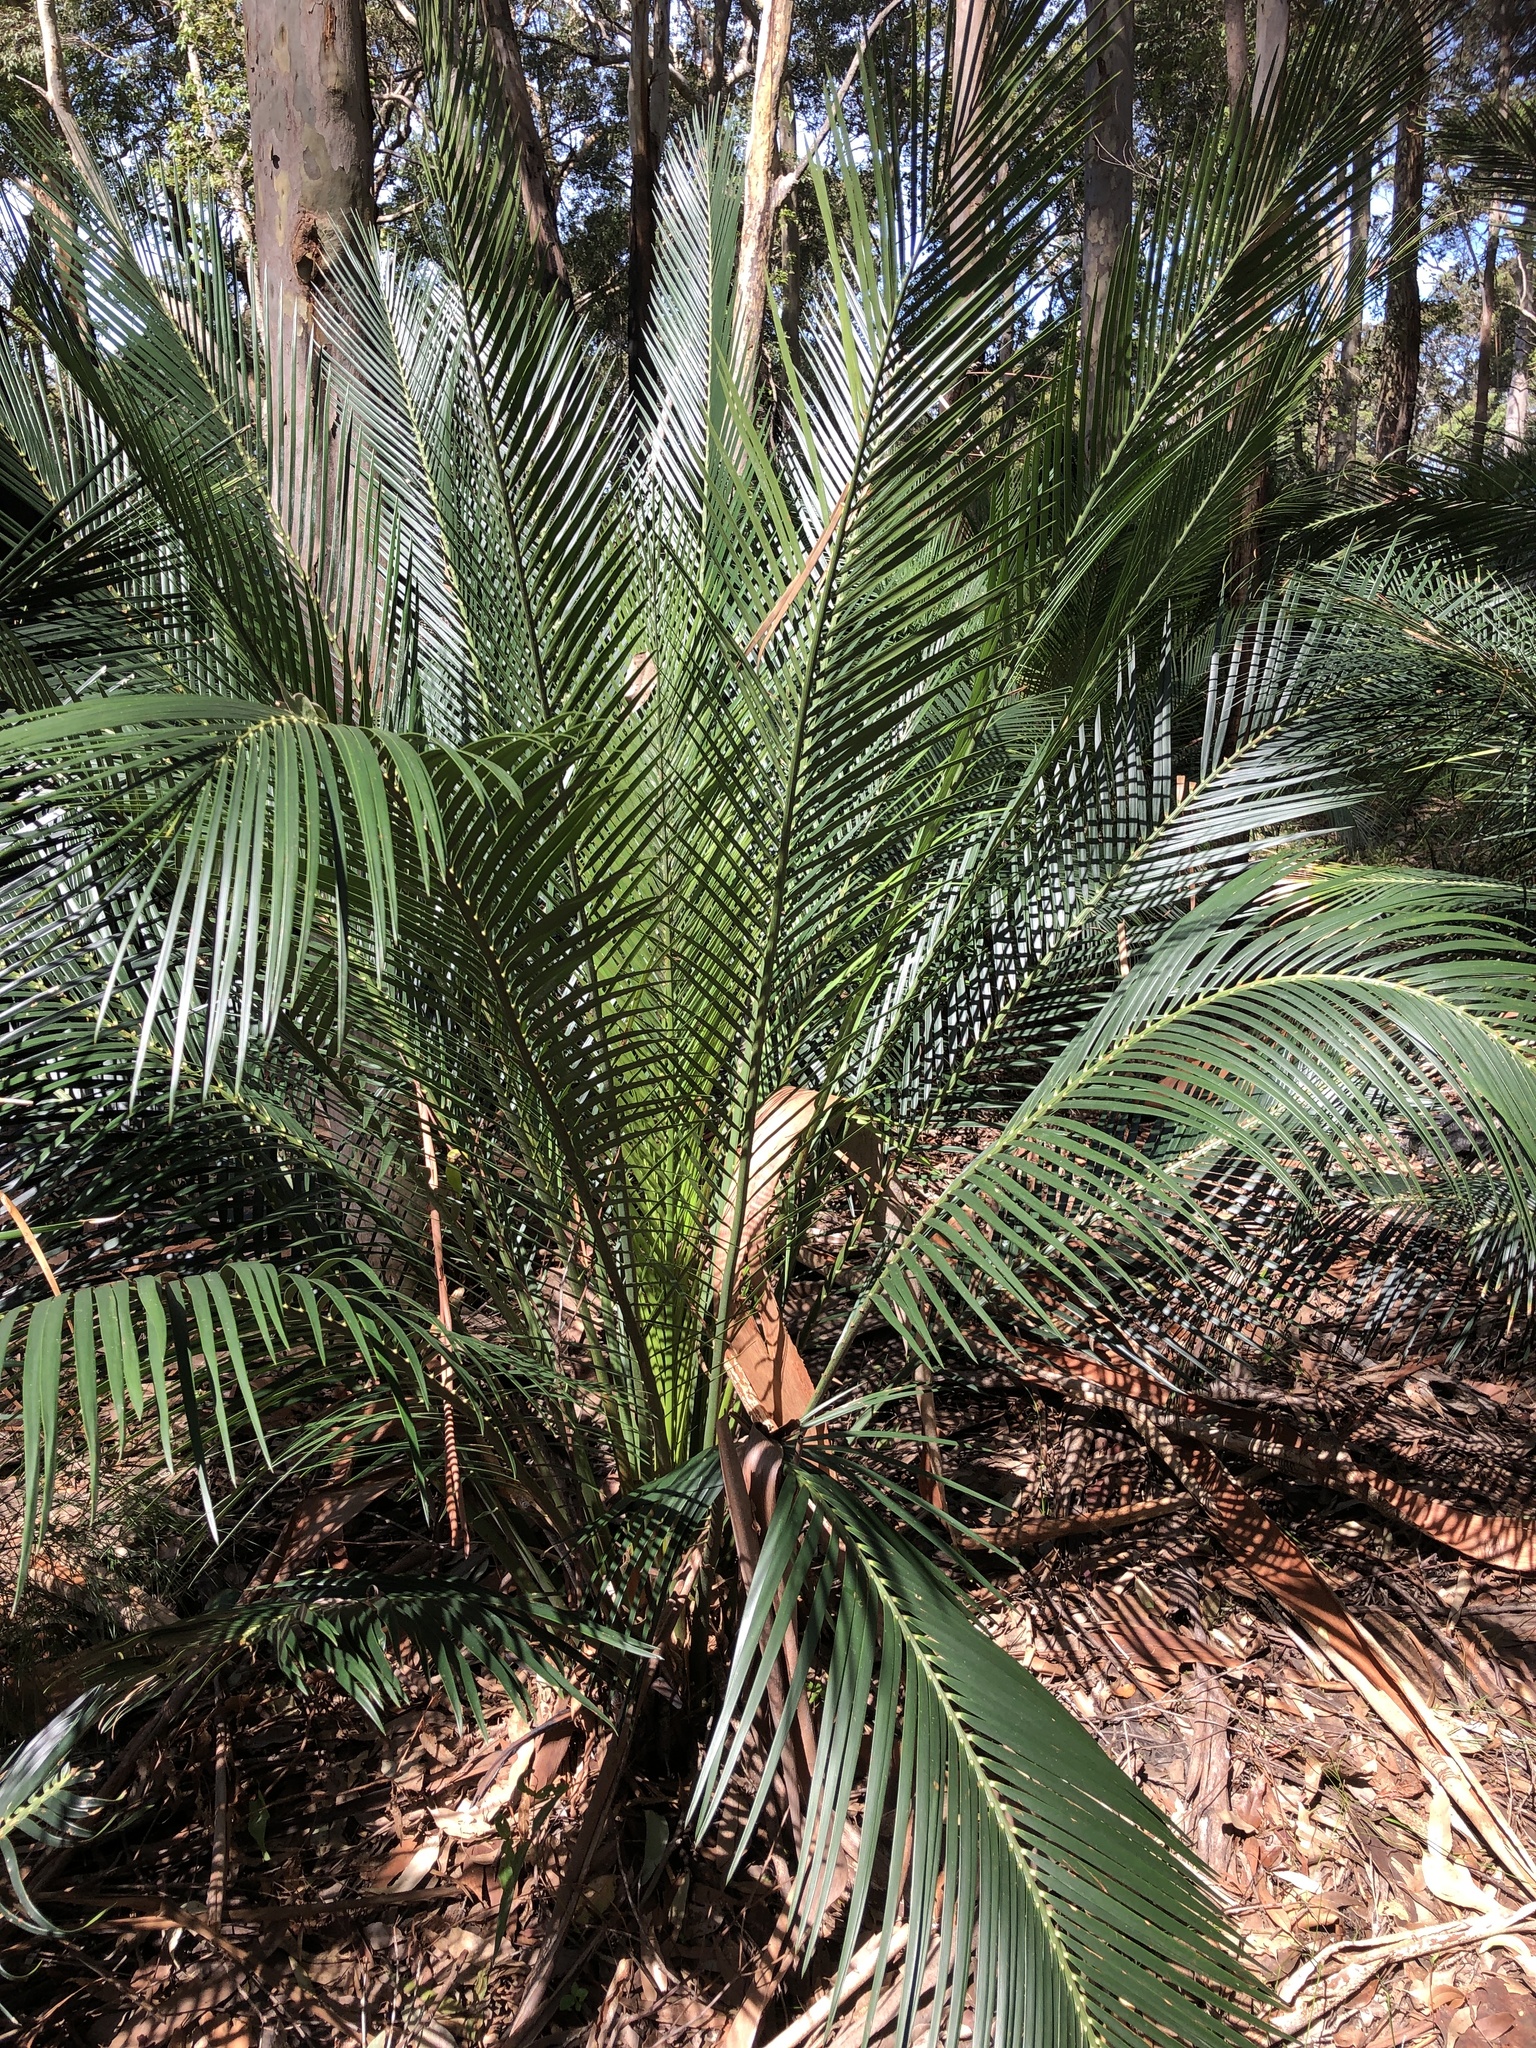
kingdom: Plantae
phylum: Tracheophyta
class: Cycadopsida
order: Cycadales
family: Zamiaceae
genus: Macrozamia
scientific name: Macrozamia communis
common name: Burrawong
